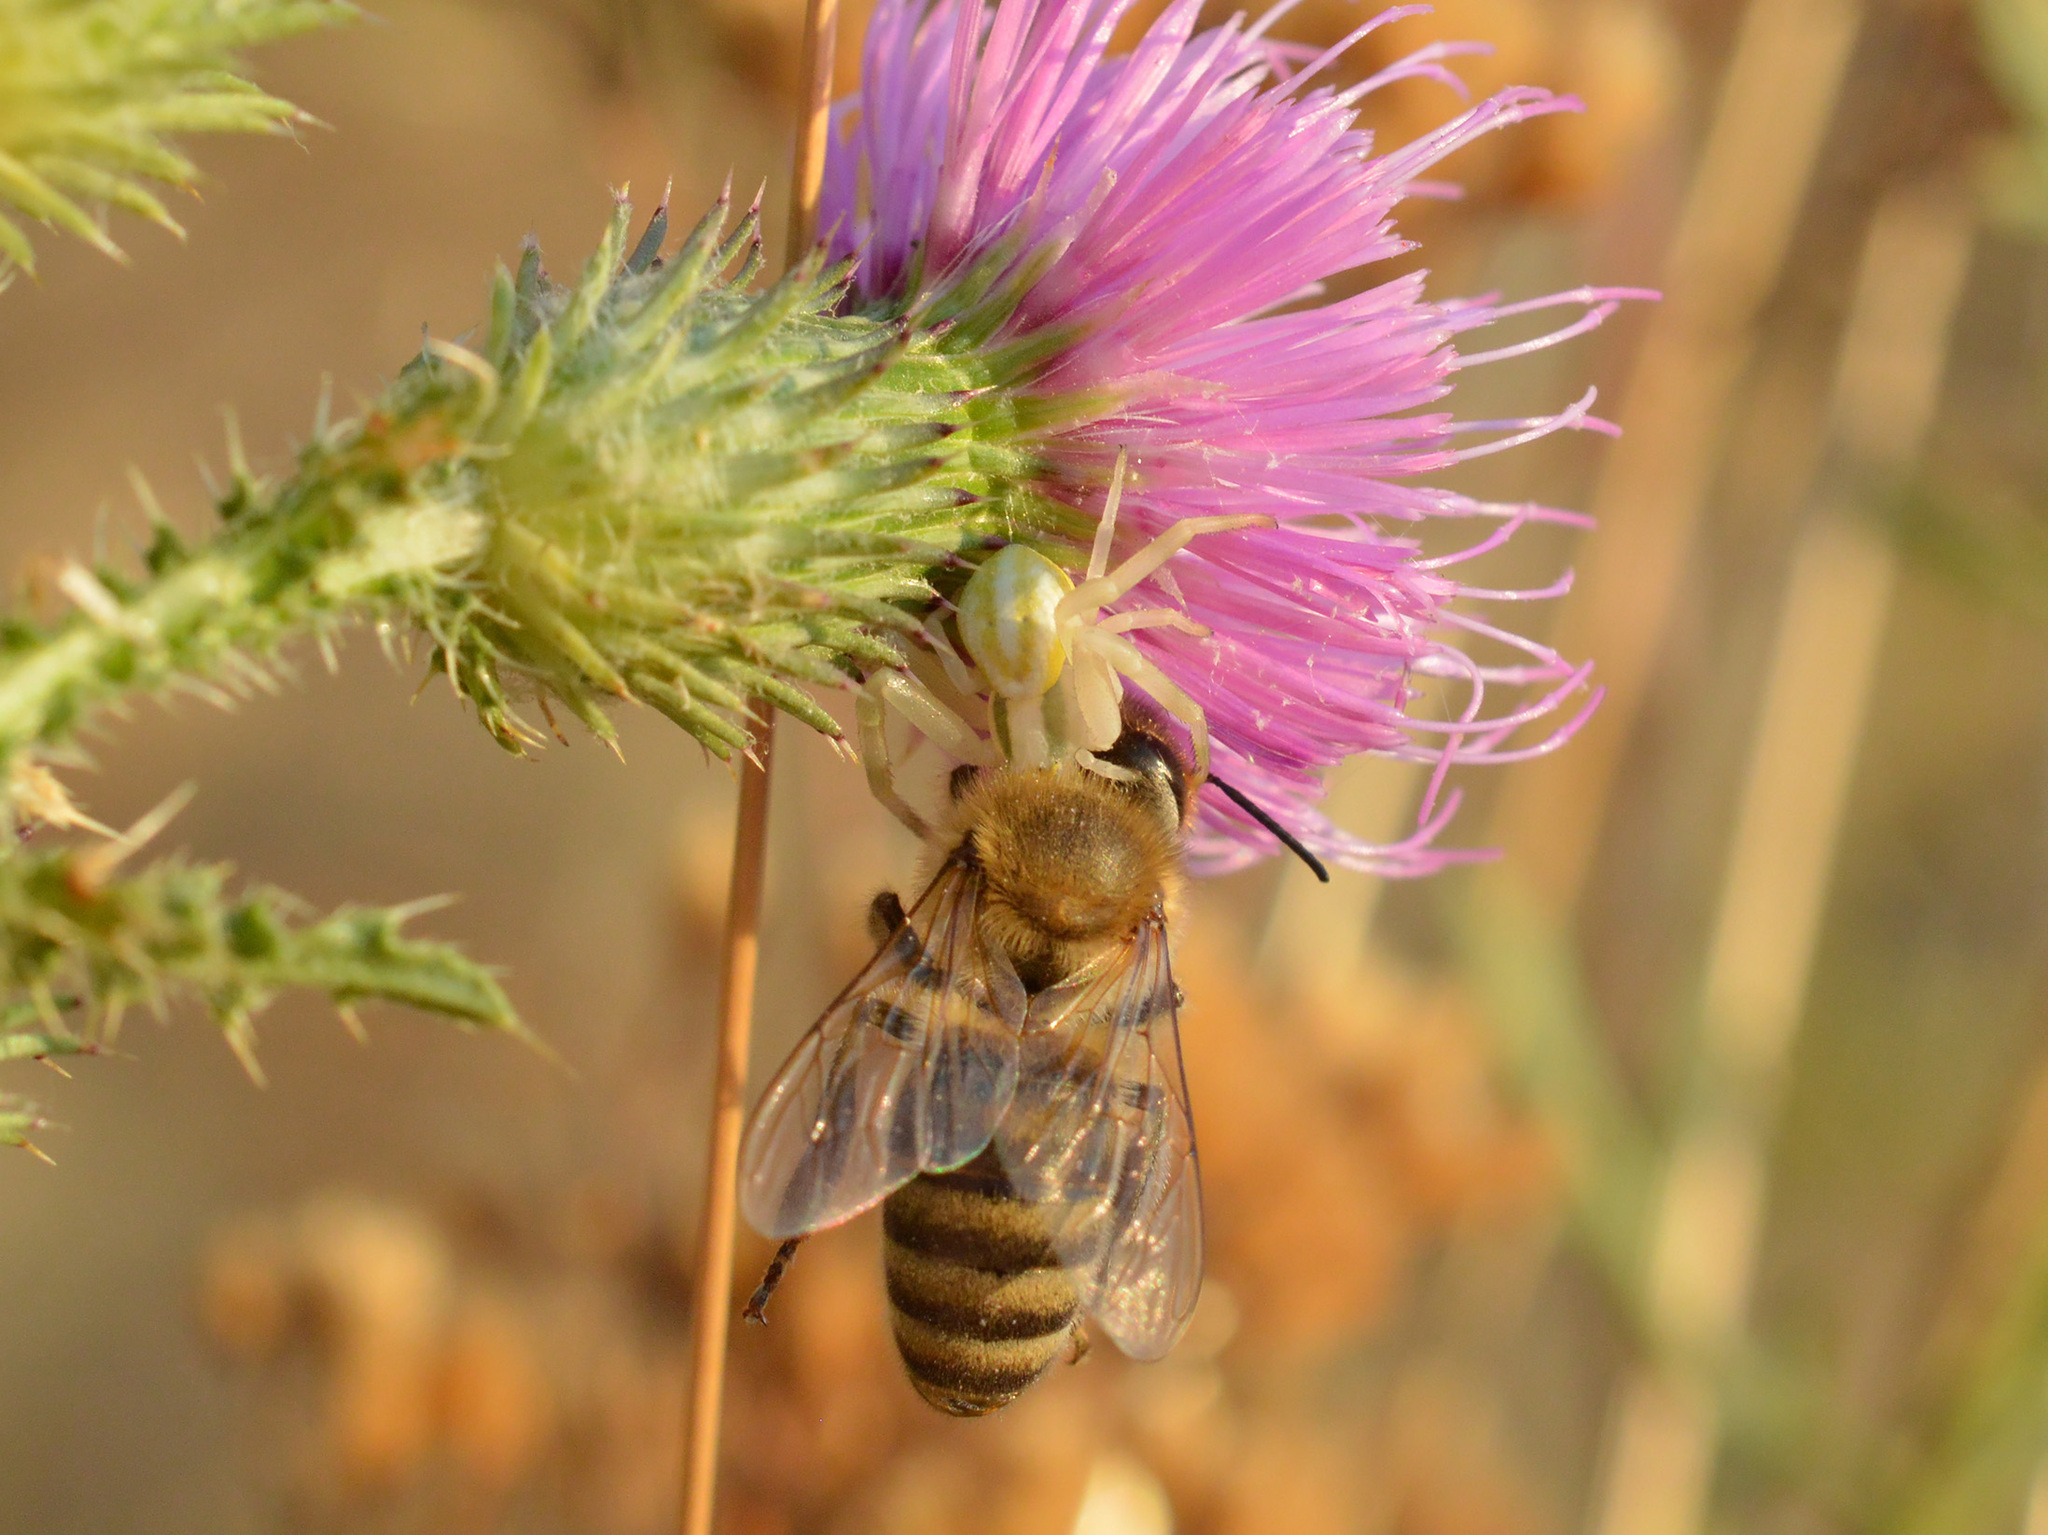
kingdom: Animalia
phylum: Arthropoda
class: Arachnida
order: Araneae
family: Thomisidae
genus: Misumena
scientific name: Misumena vatia
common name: Goldenrod crab spider
